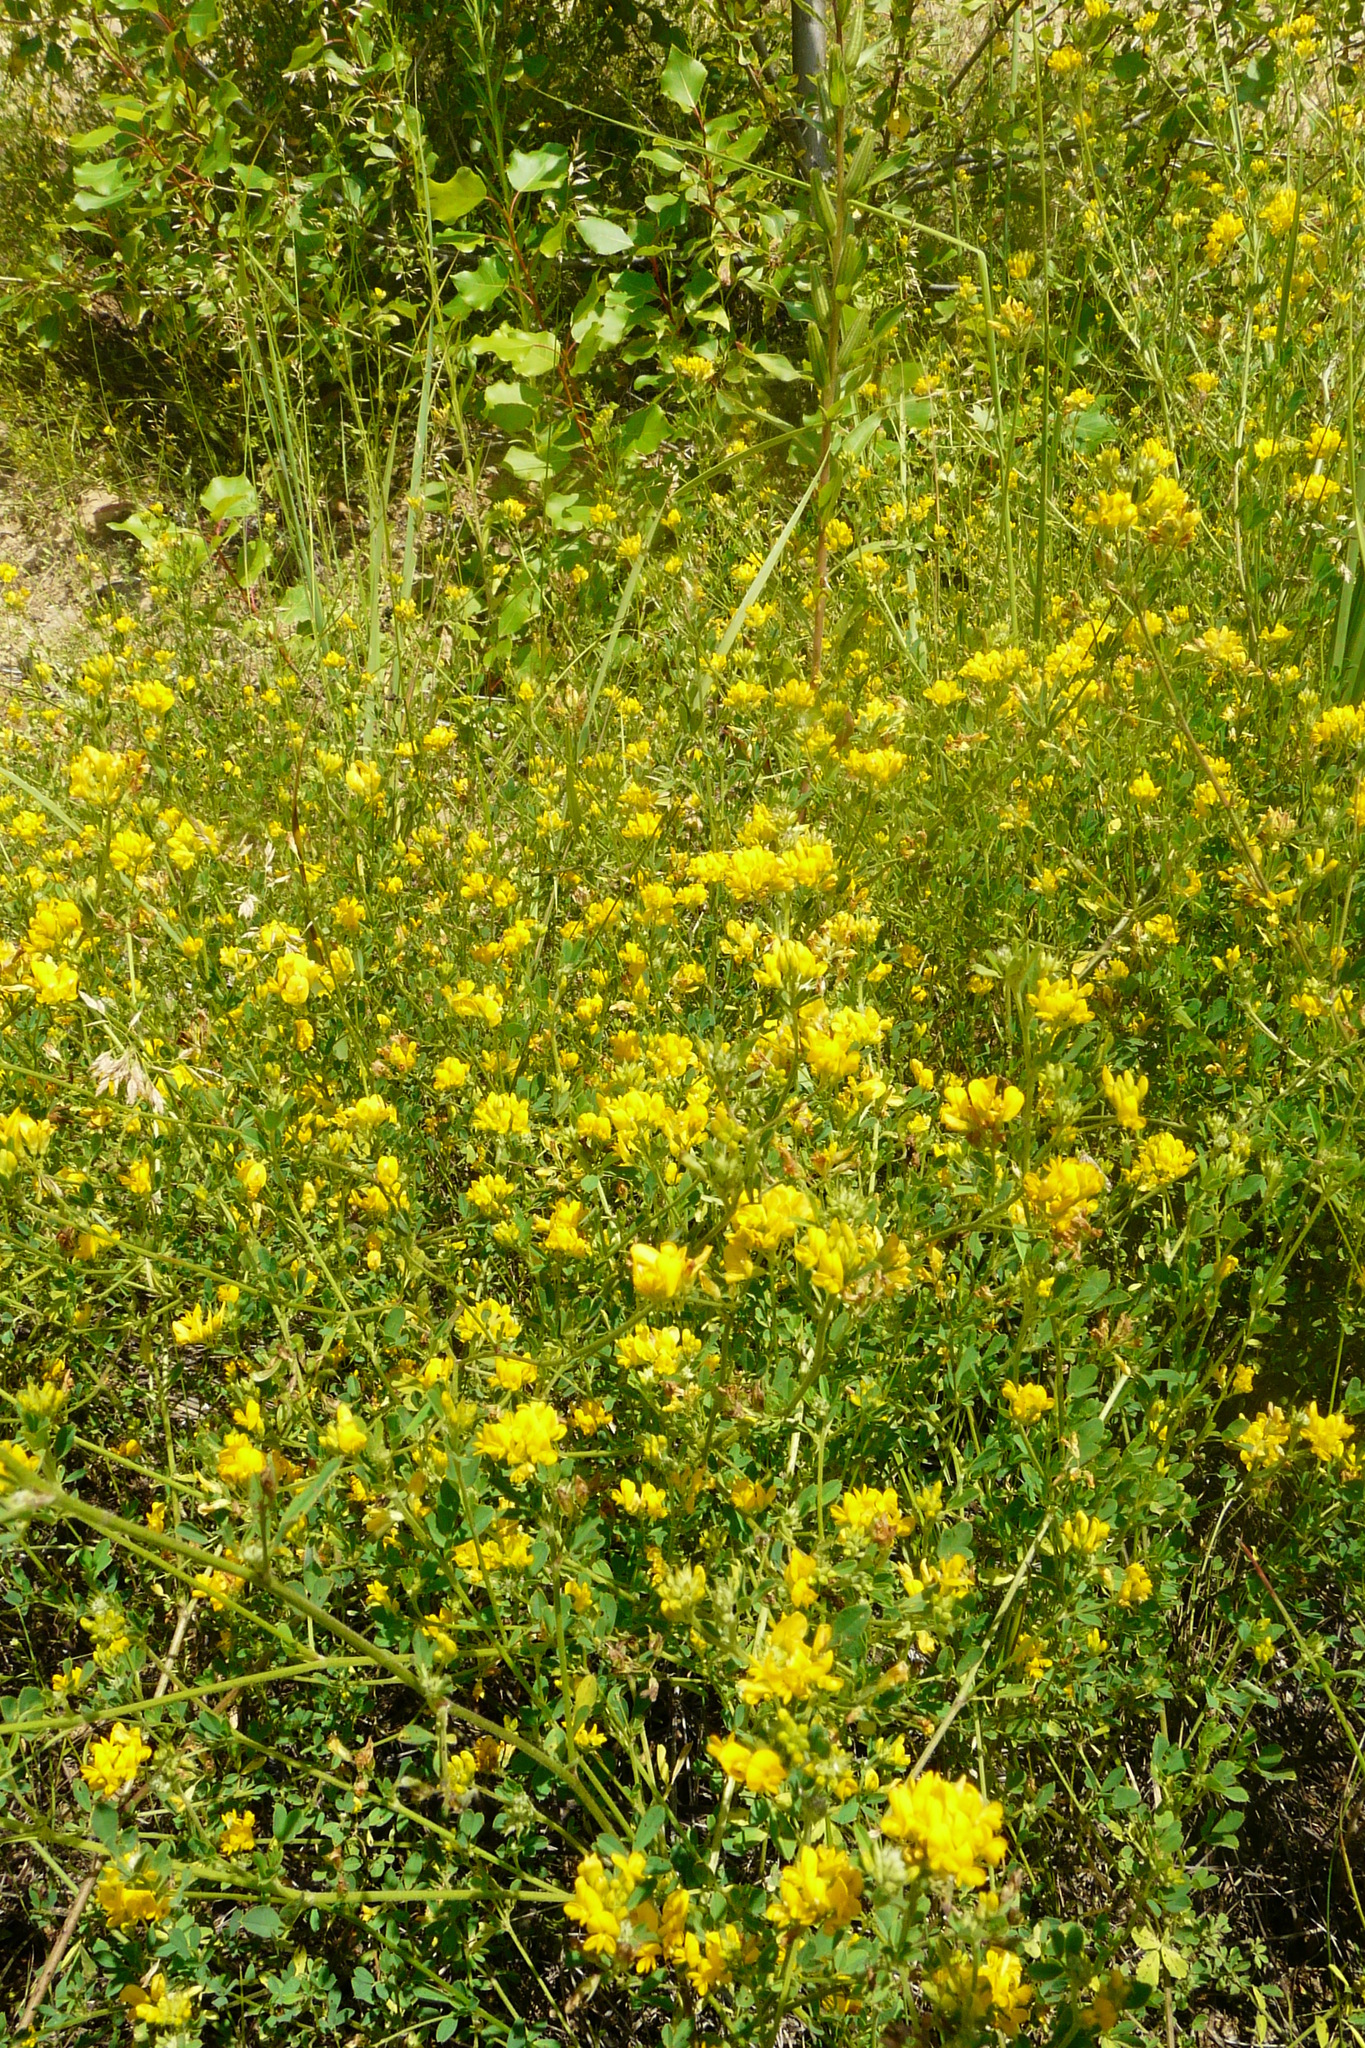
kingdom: Plantae
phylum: Tracheophyta
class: Magnoliopsida
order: Fabales
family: Fabaceae
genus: Medicago
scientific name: Medicago falcata
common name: Sickle medick
